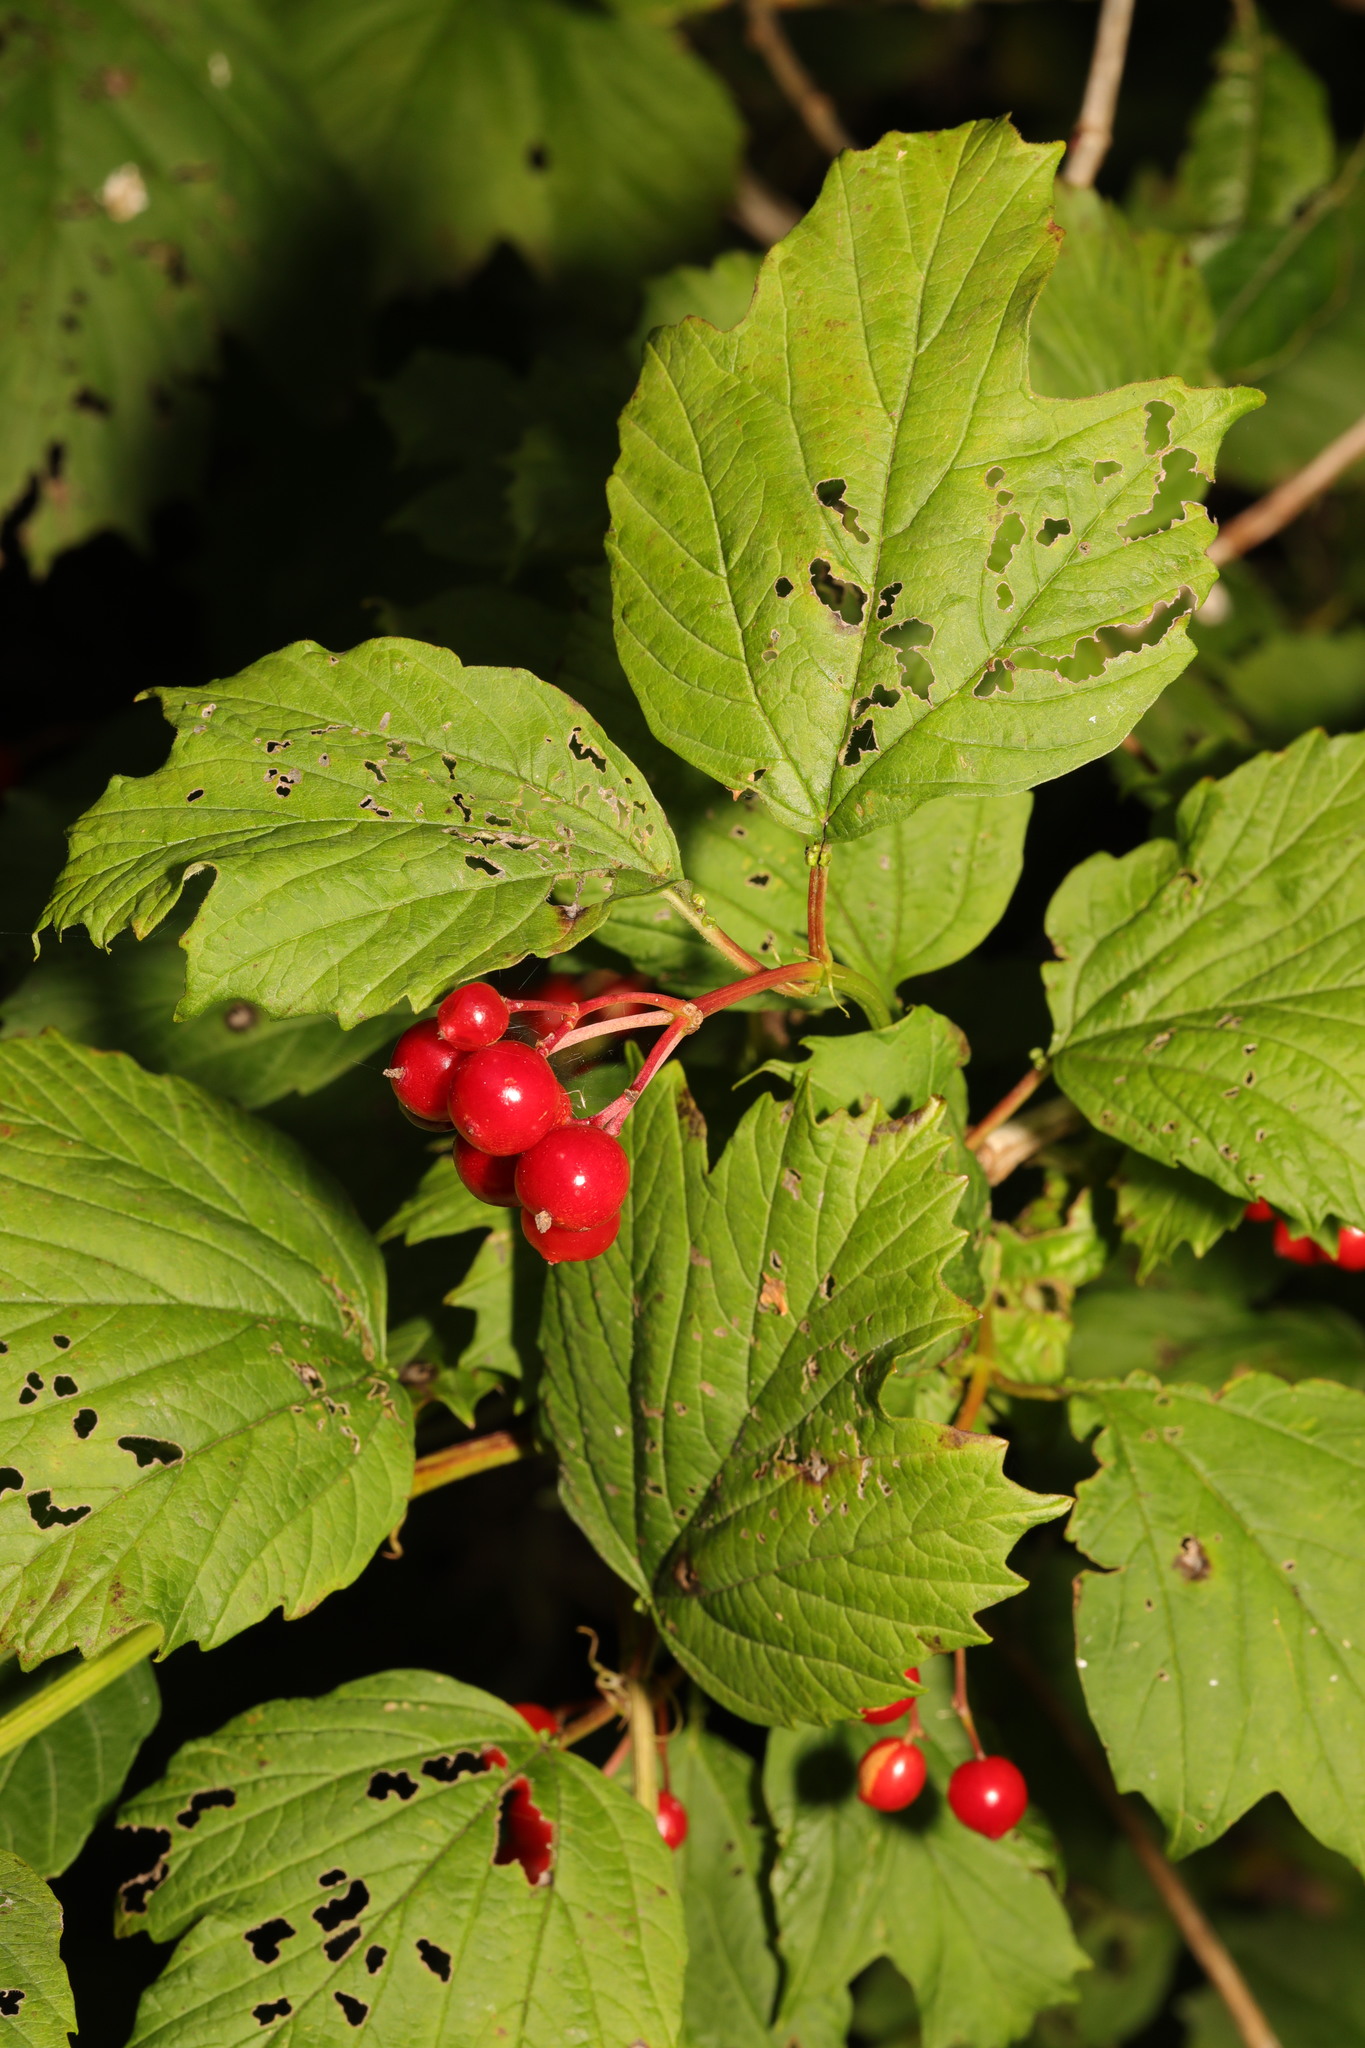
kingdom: Plantae
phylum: Tracheophyta
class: Magnoliopsida
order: Dipsacales
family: Viburnaceae
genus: Viburnum
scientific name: Viburnum opulus
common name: Guelder-rose
